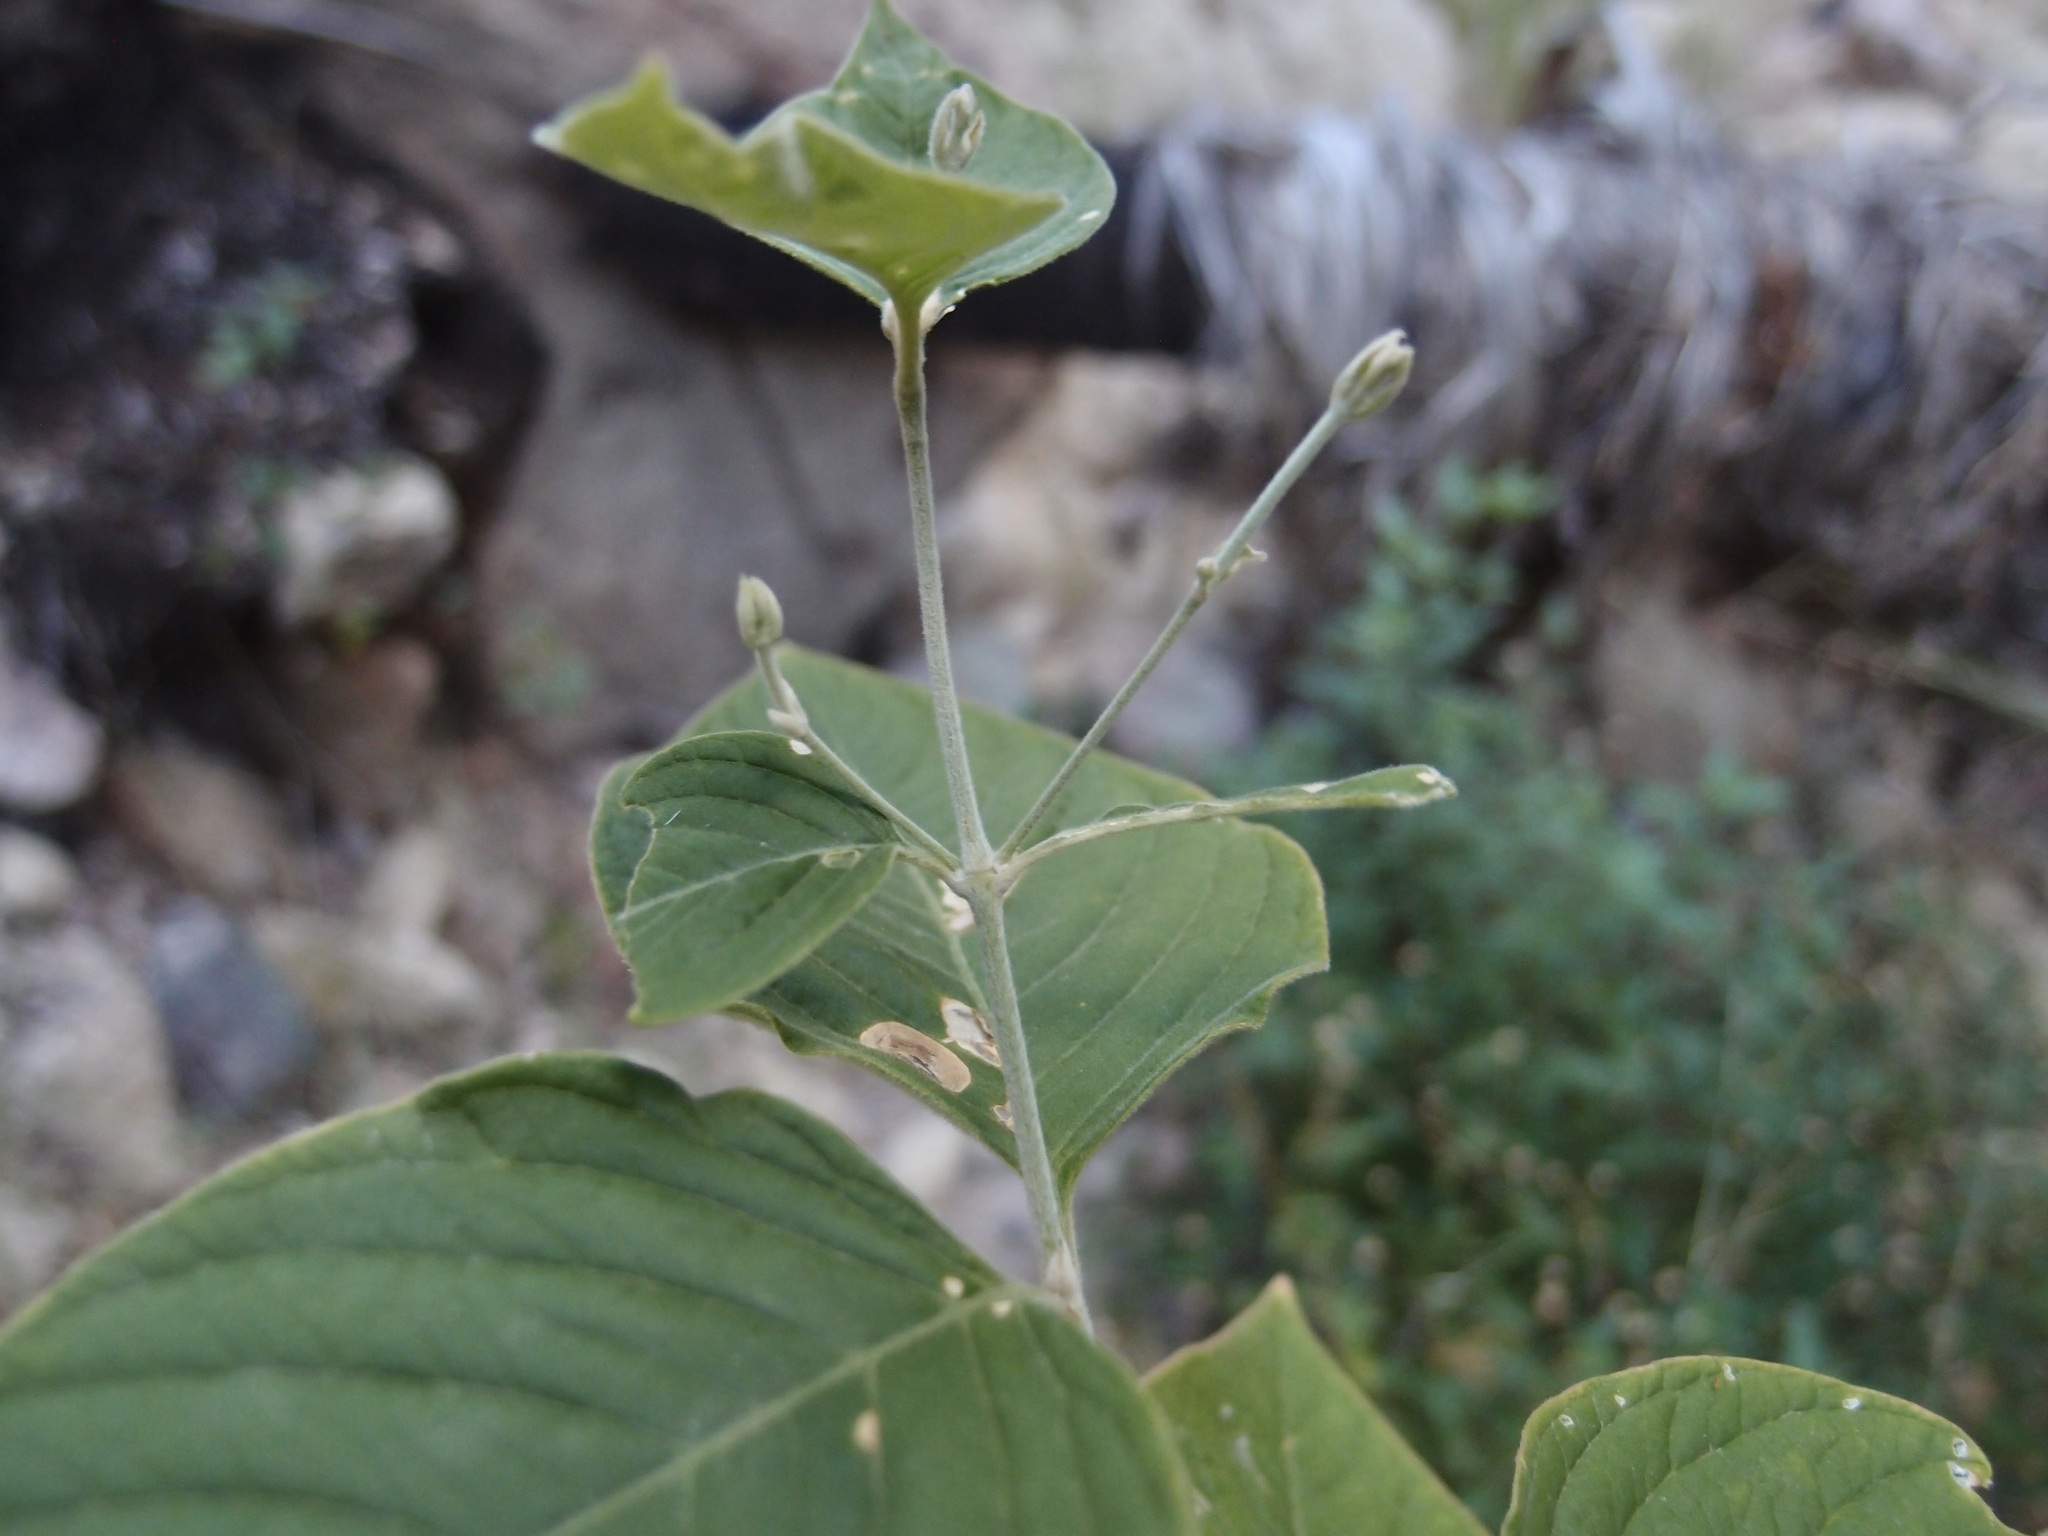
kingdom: Plantae
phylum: Tracheophyta
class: Magnoliopsida
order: Caryophyllales
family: Amaranthaceae
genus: Iresine
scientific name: Iresine latifolia
